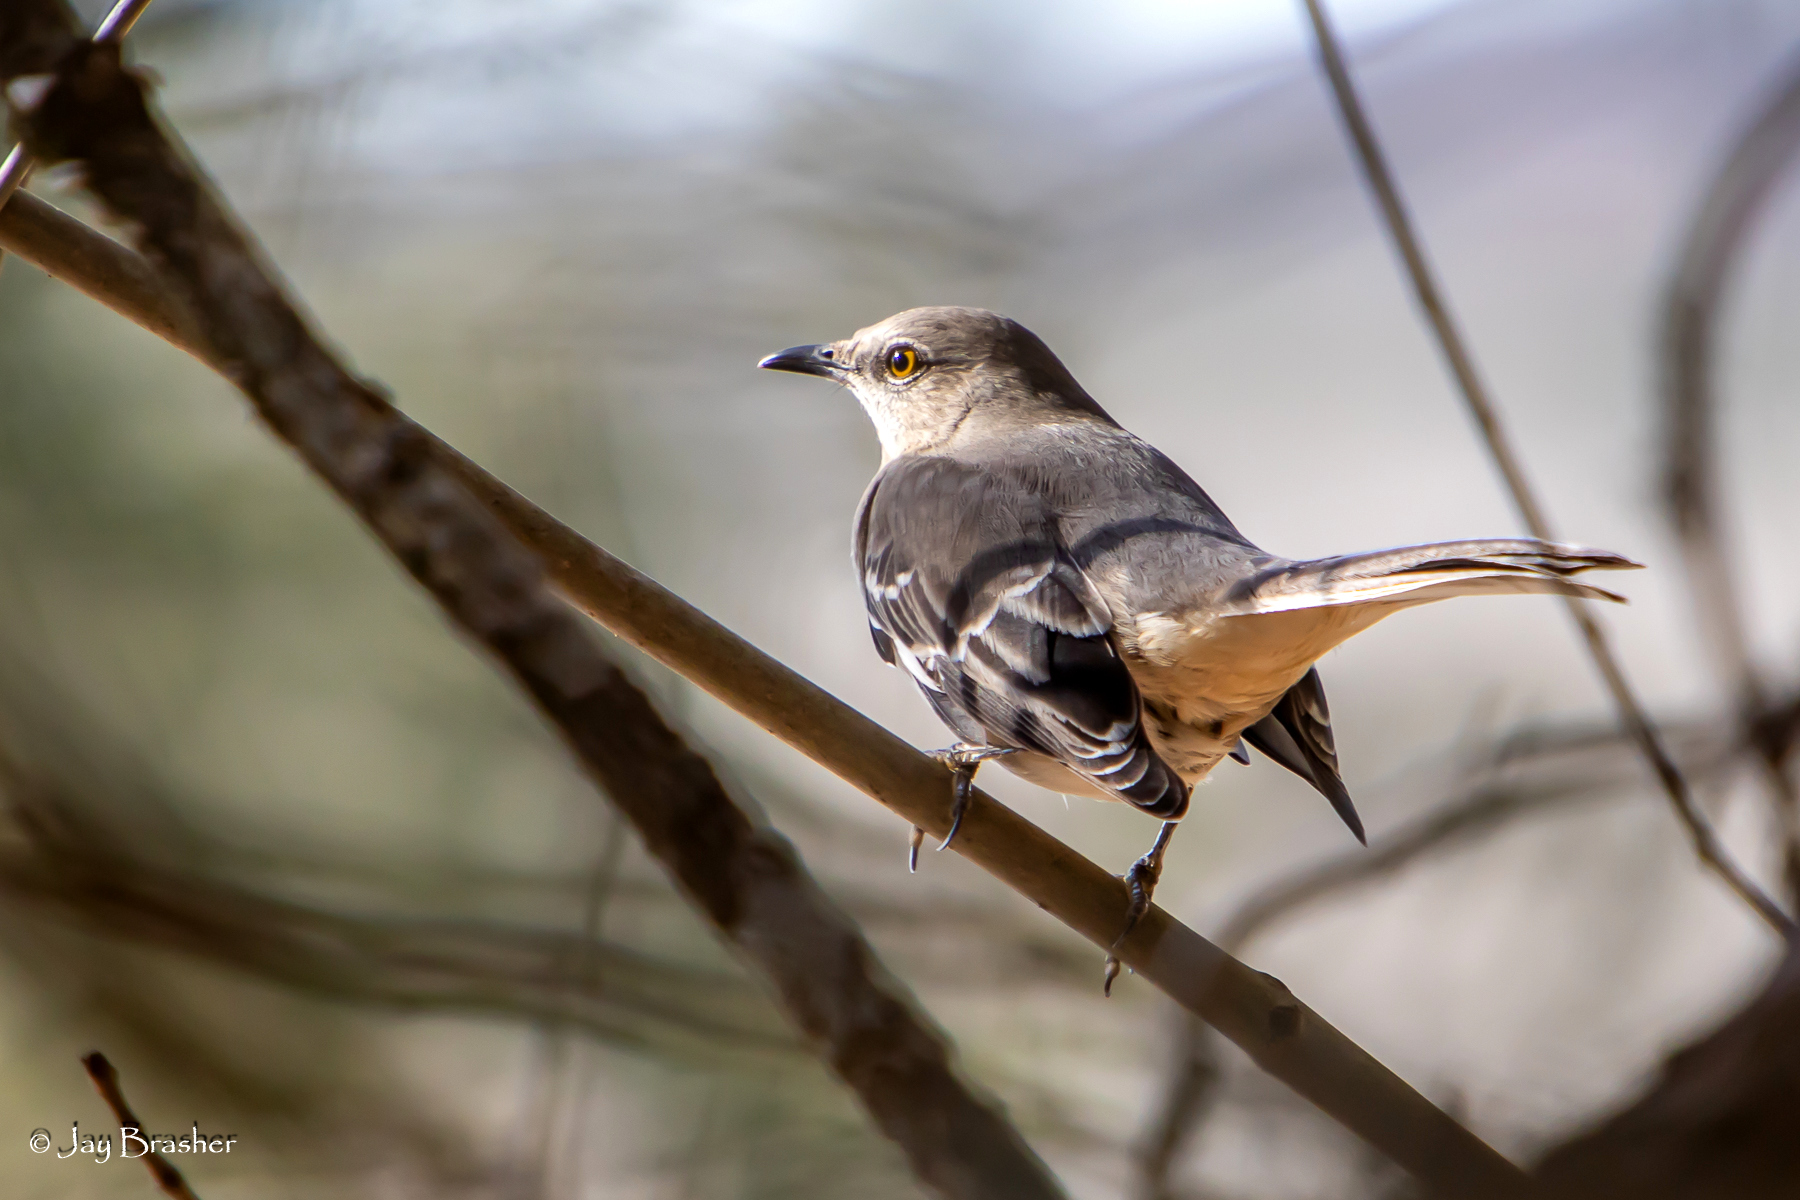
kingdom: Animalia
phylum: Chordata
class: Aves
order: Passeriformes
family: Mimidae
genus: Mimus
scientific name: Mimus polyglottos
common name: Northern mockingbird
